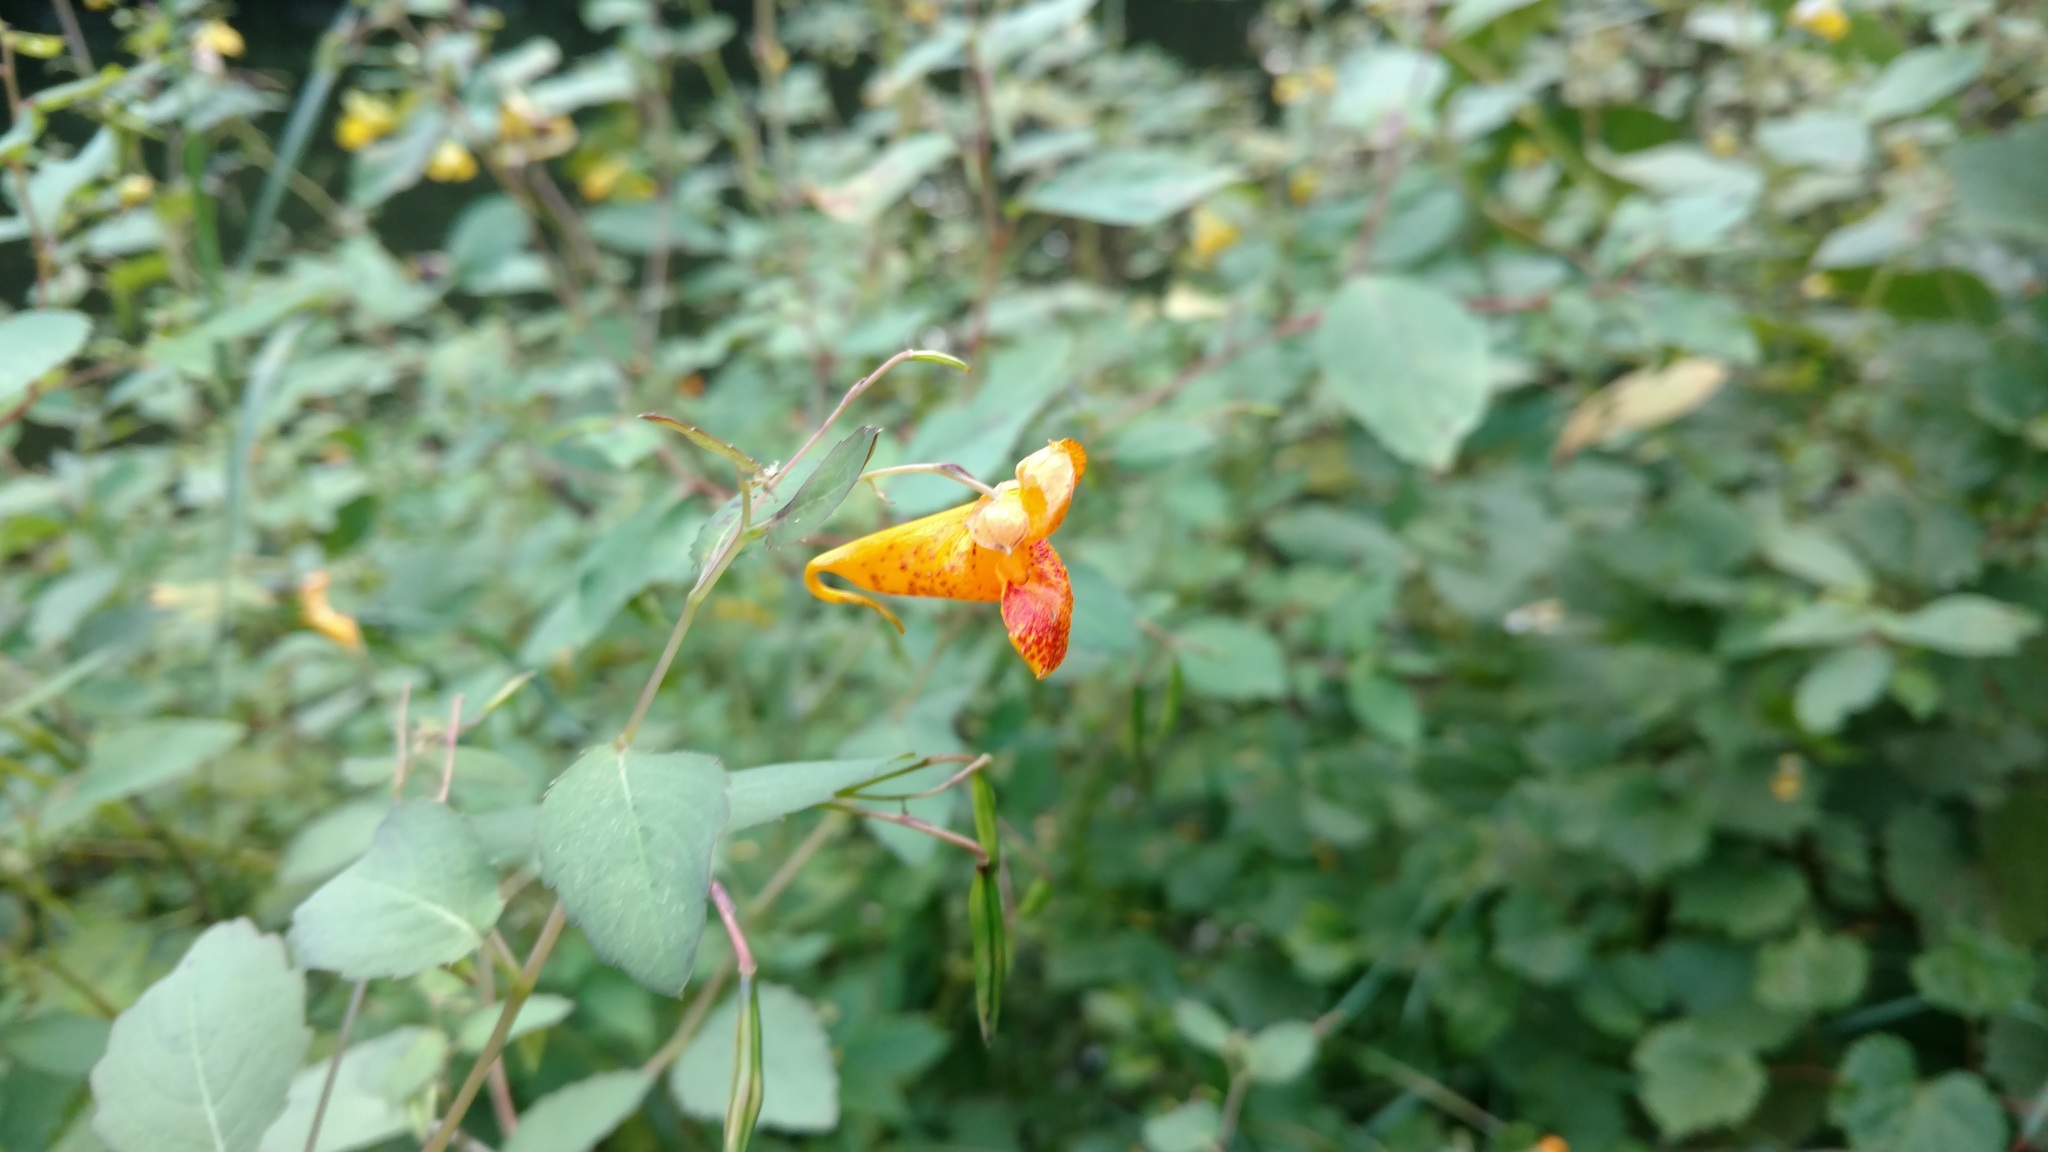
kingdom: Plantae
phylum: Tracheophyta
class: Magnoliopsida
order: Ericales
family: Balsaminaceae
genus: Impatiens
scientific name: Impatiens capensis
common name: Orange balsam
